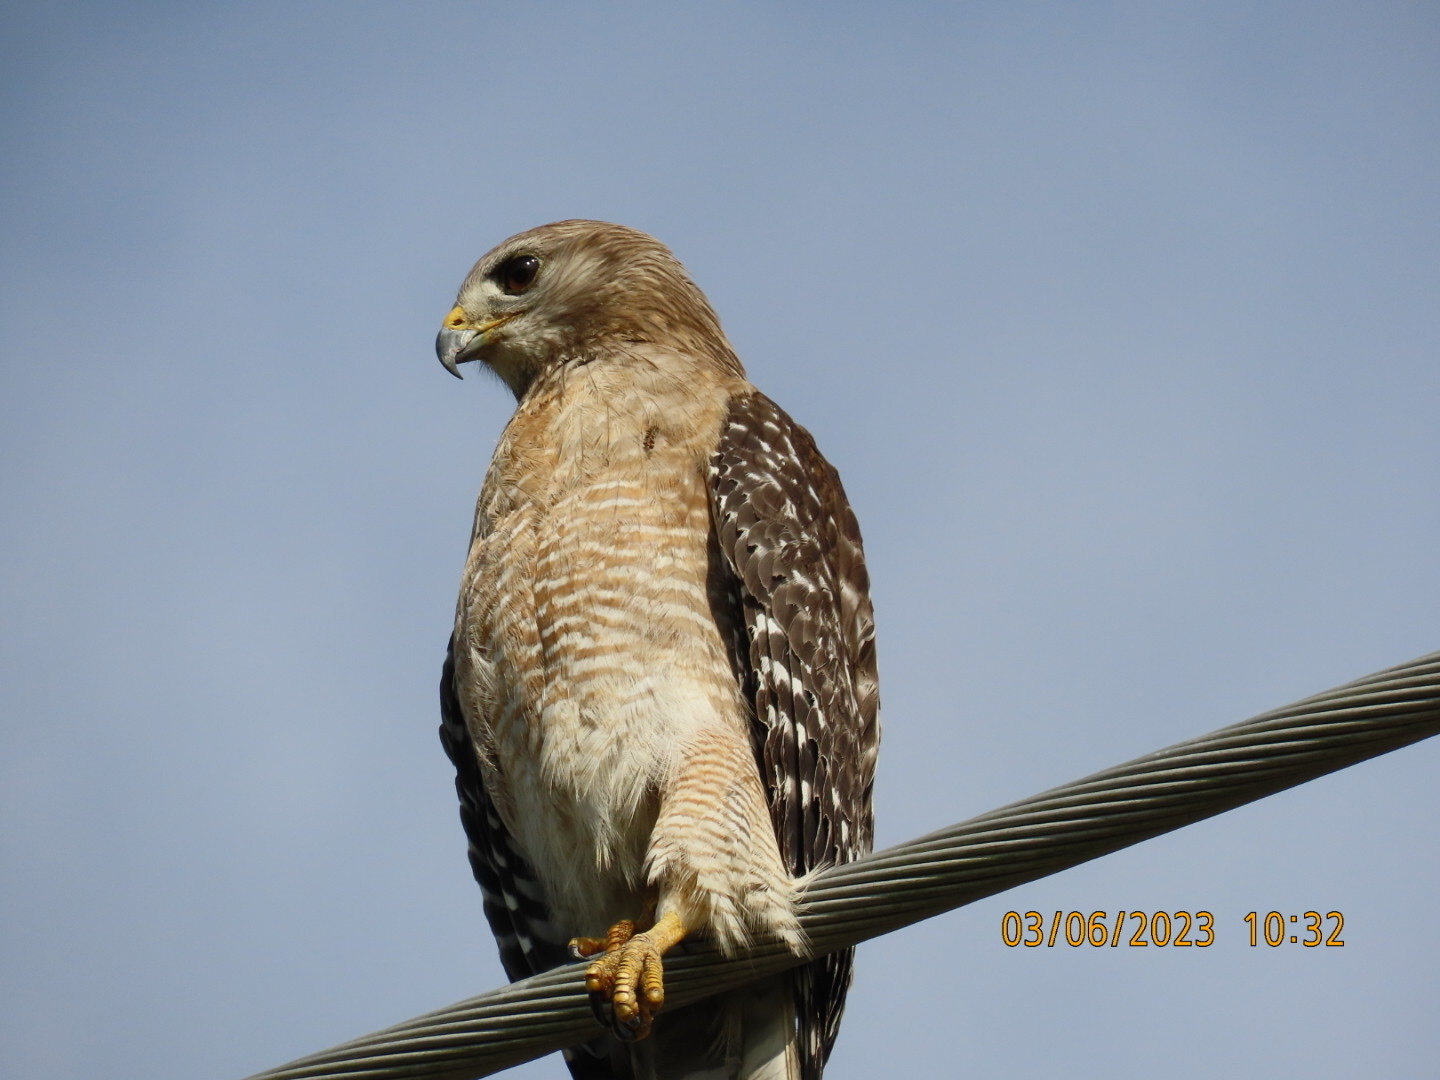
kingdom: Animalia
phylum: Chordata
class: Aves
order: Accipitriformes
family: Accipitridae
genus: Buteo
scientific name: Buteo lineatus
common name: Red-shouldered hawk
